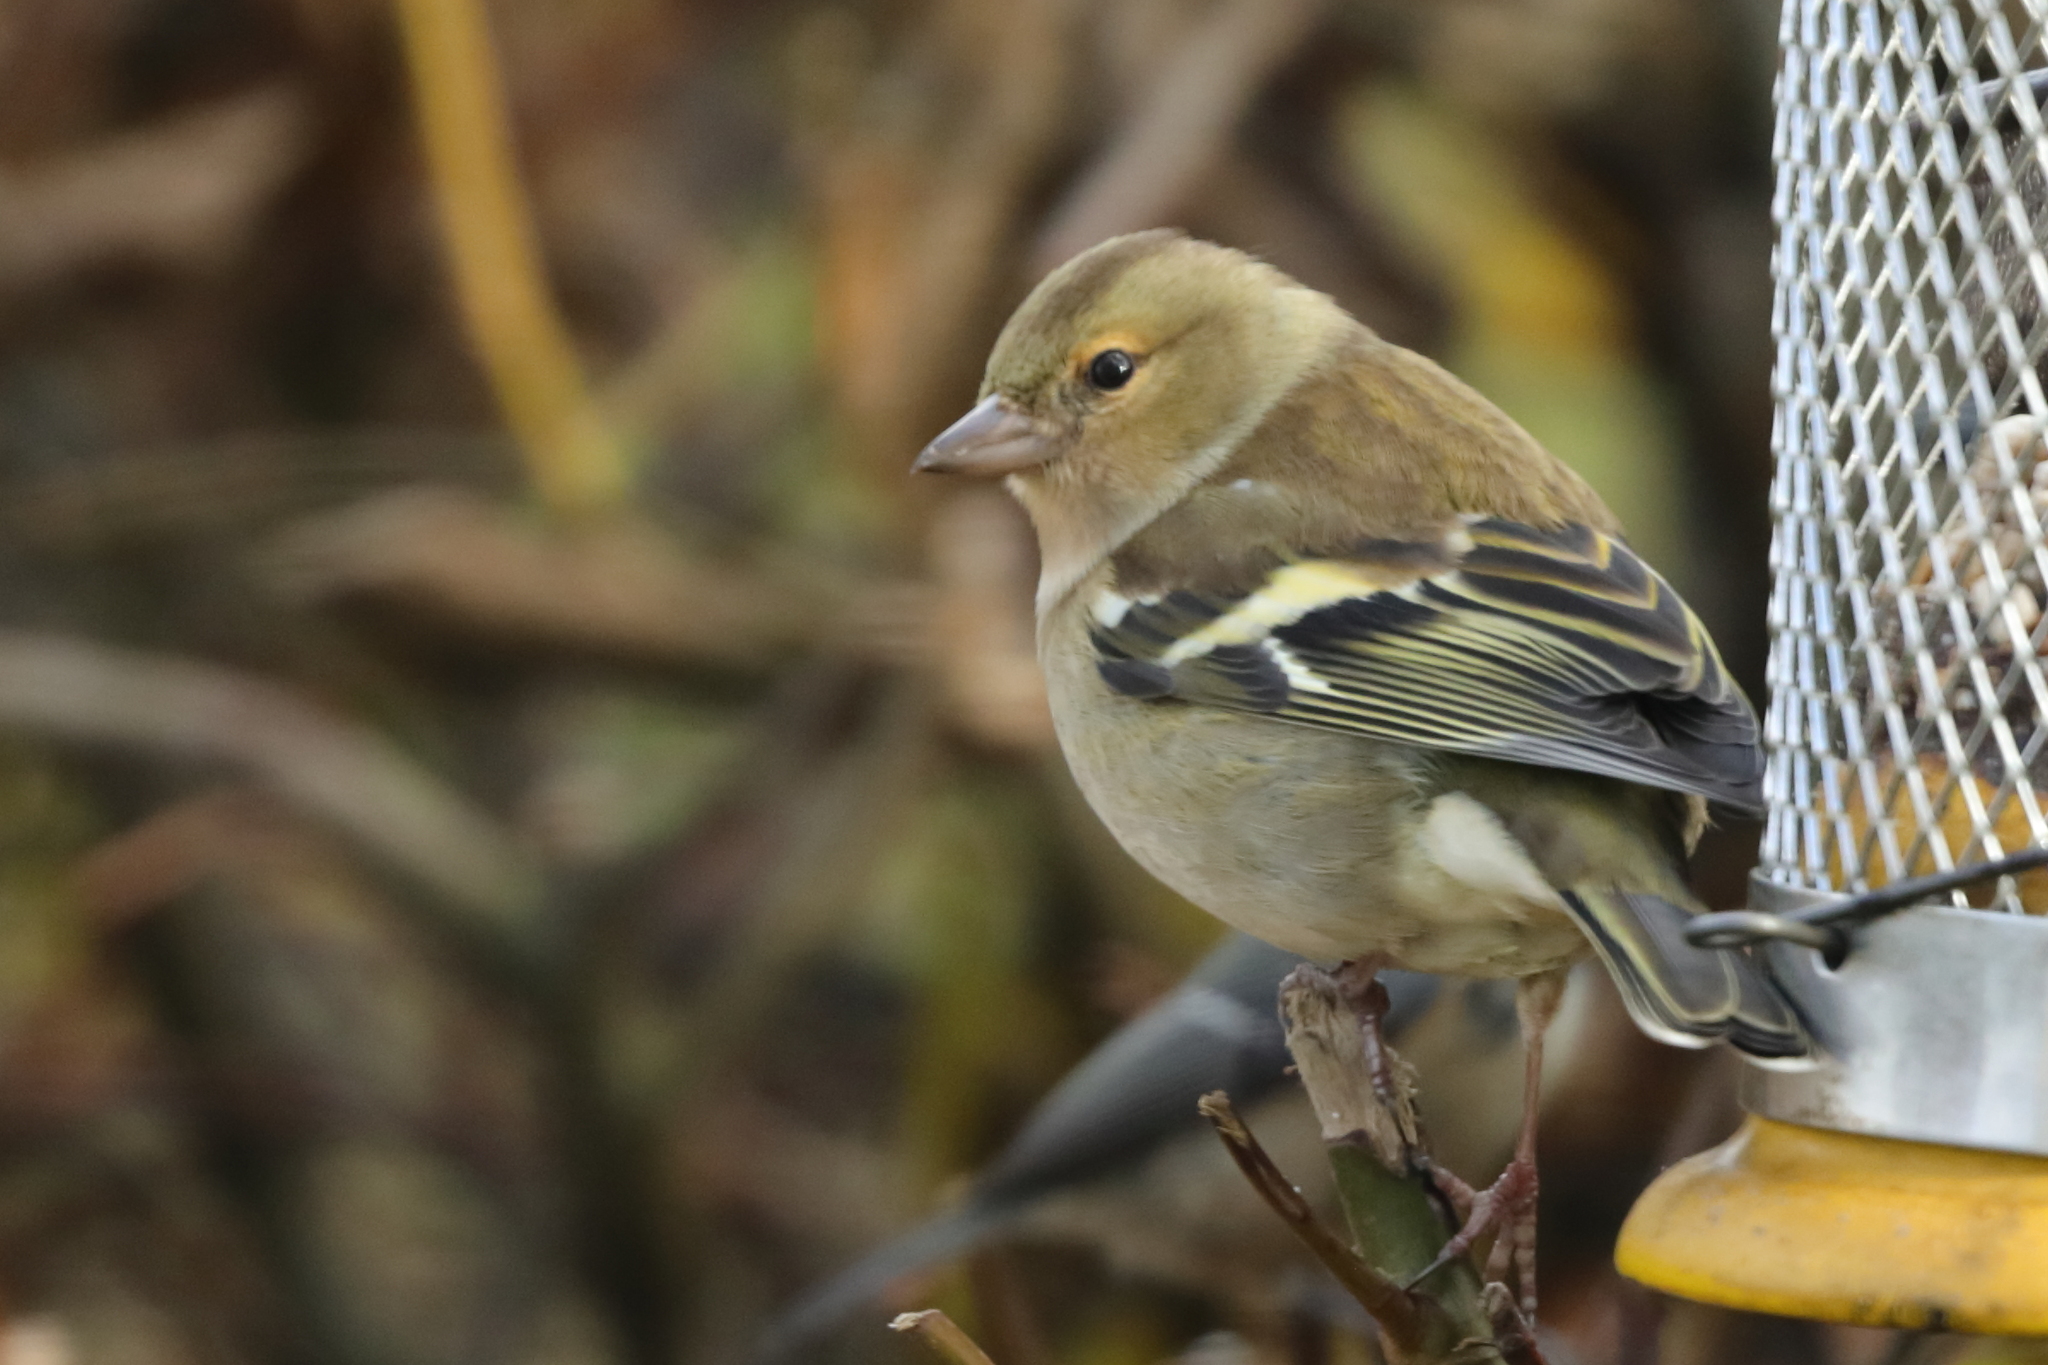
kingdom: Animalia
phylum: Chordata
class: Aves
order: Passeriformes
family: Fringillidae
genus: Fringilla
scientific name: Fringilla coelebs
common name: Common chaffinch
